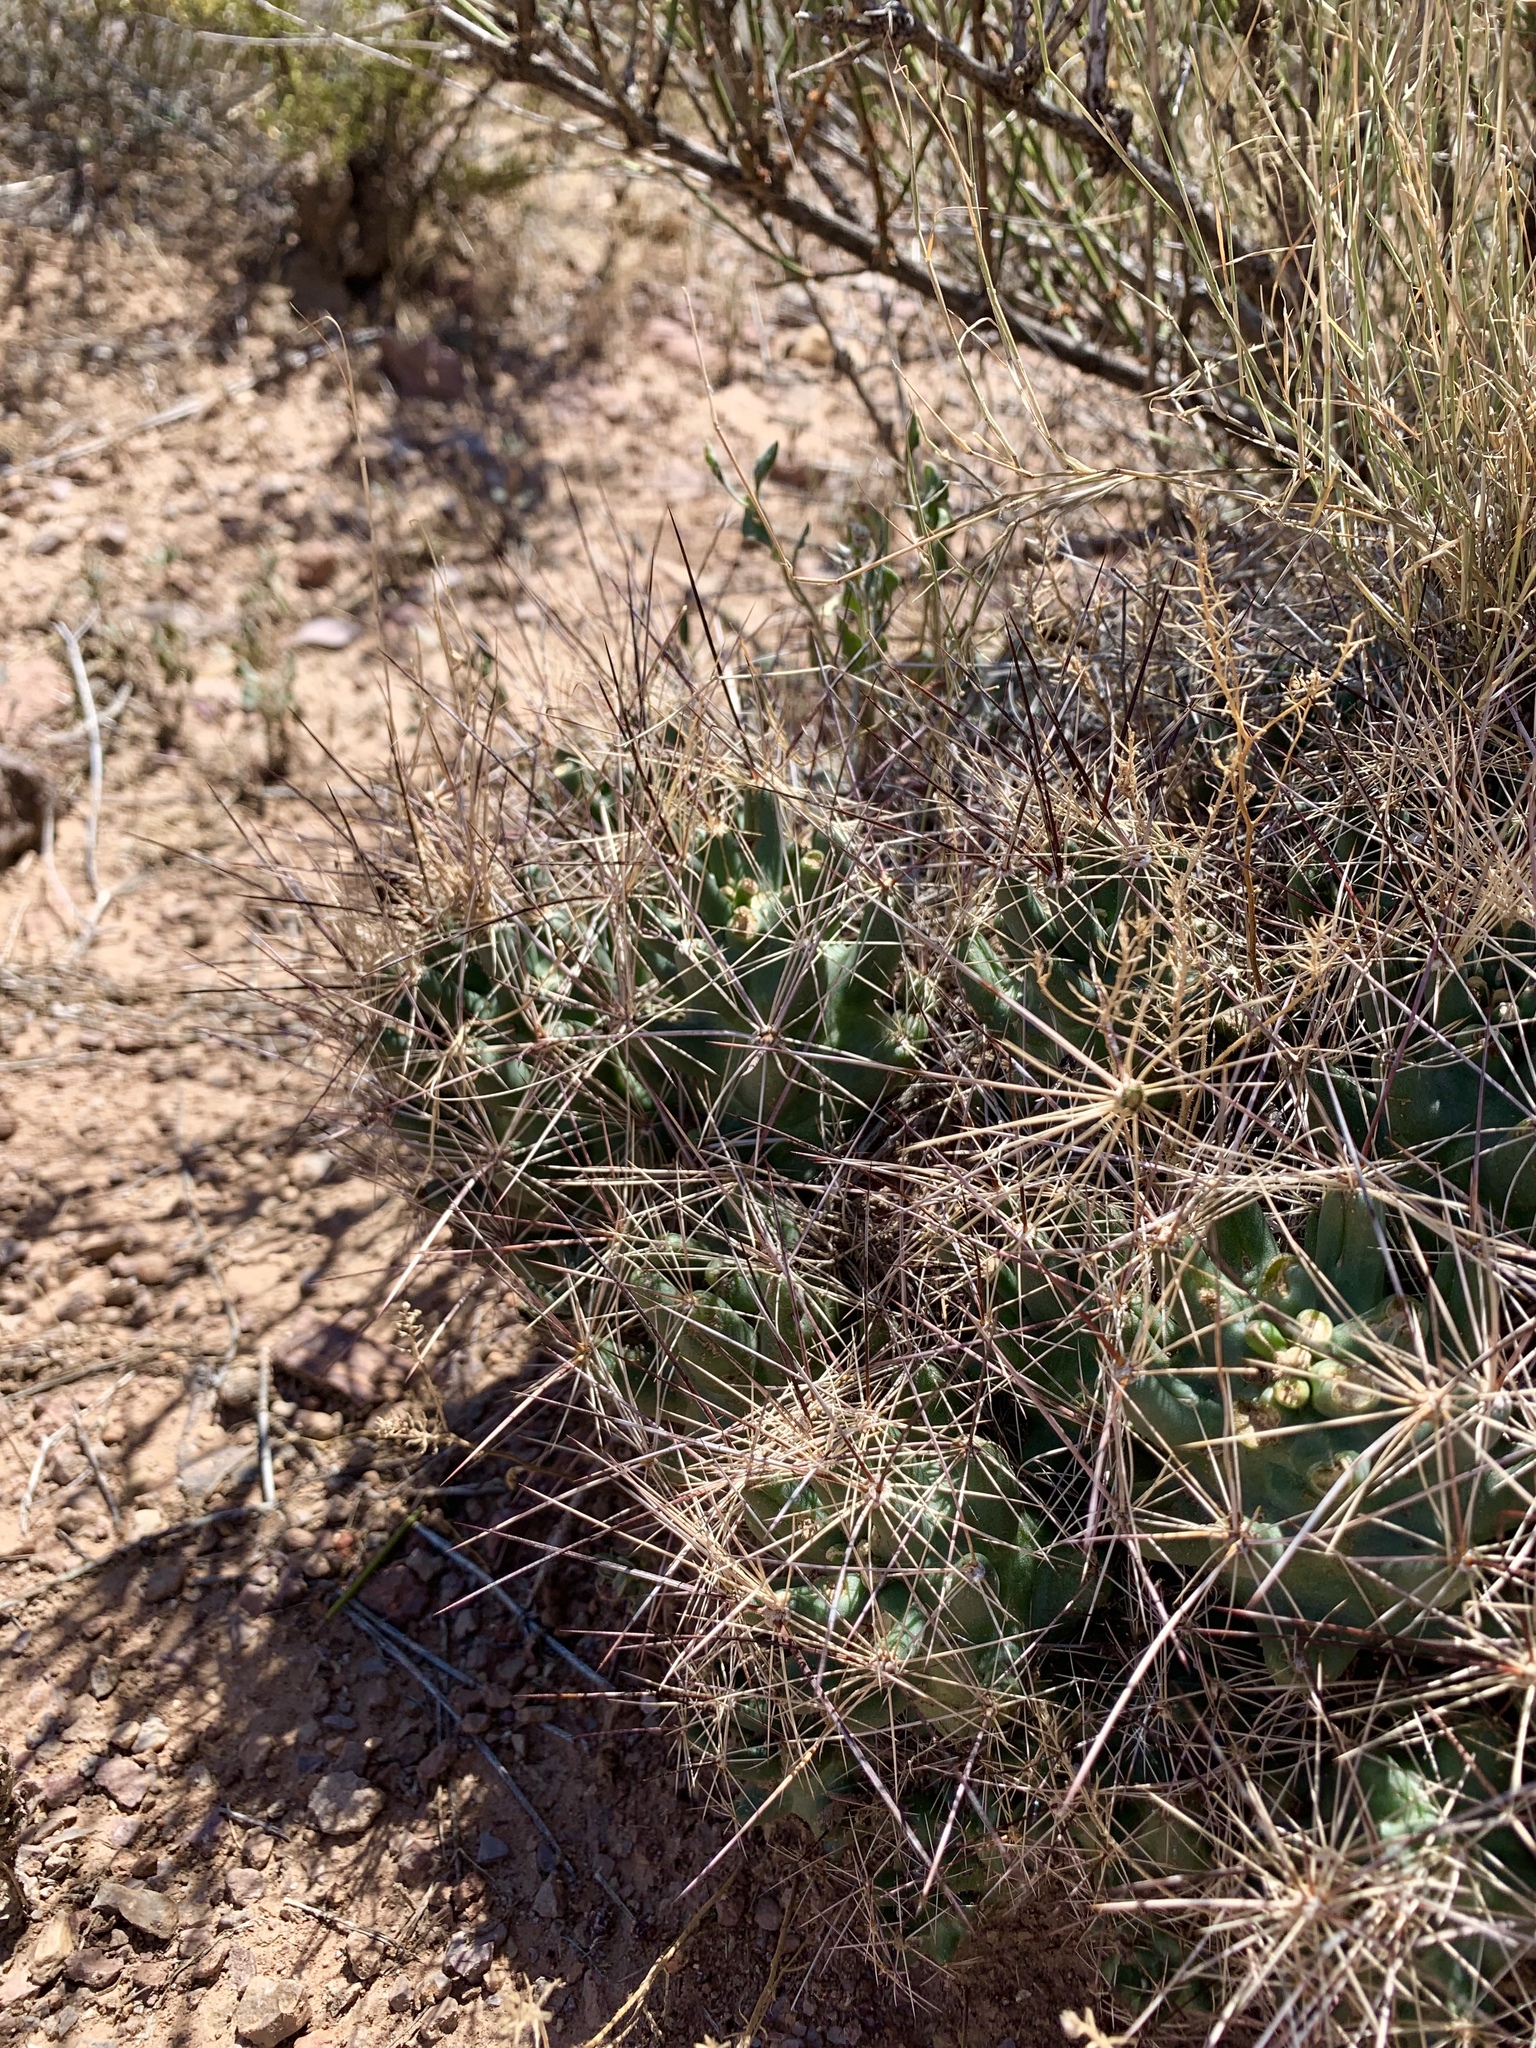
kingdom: Plantae
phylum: Tracheophyta
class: Magnoliopsida
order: Caryophyllales
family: Cactaceae
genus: Coryphantha
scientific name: Coryphantha macromeris
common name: Nipple beehive cactus
